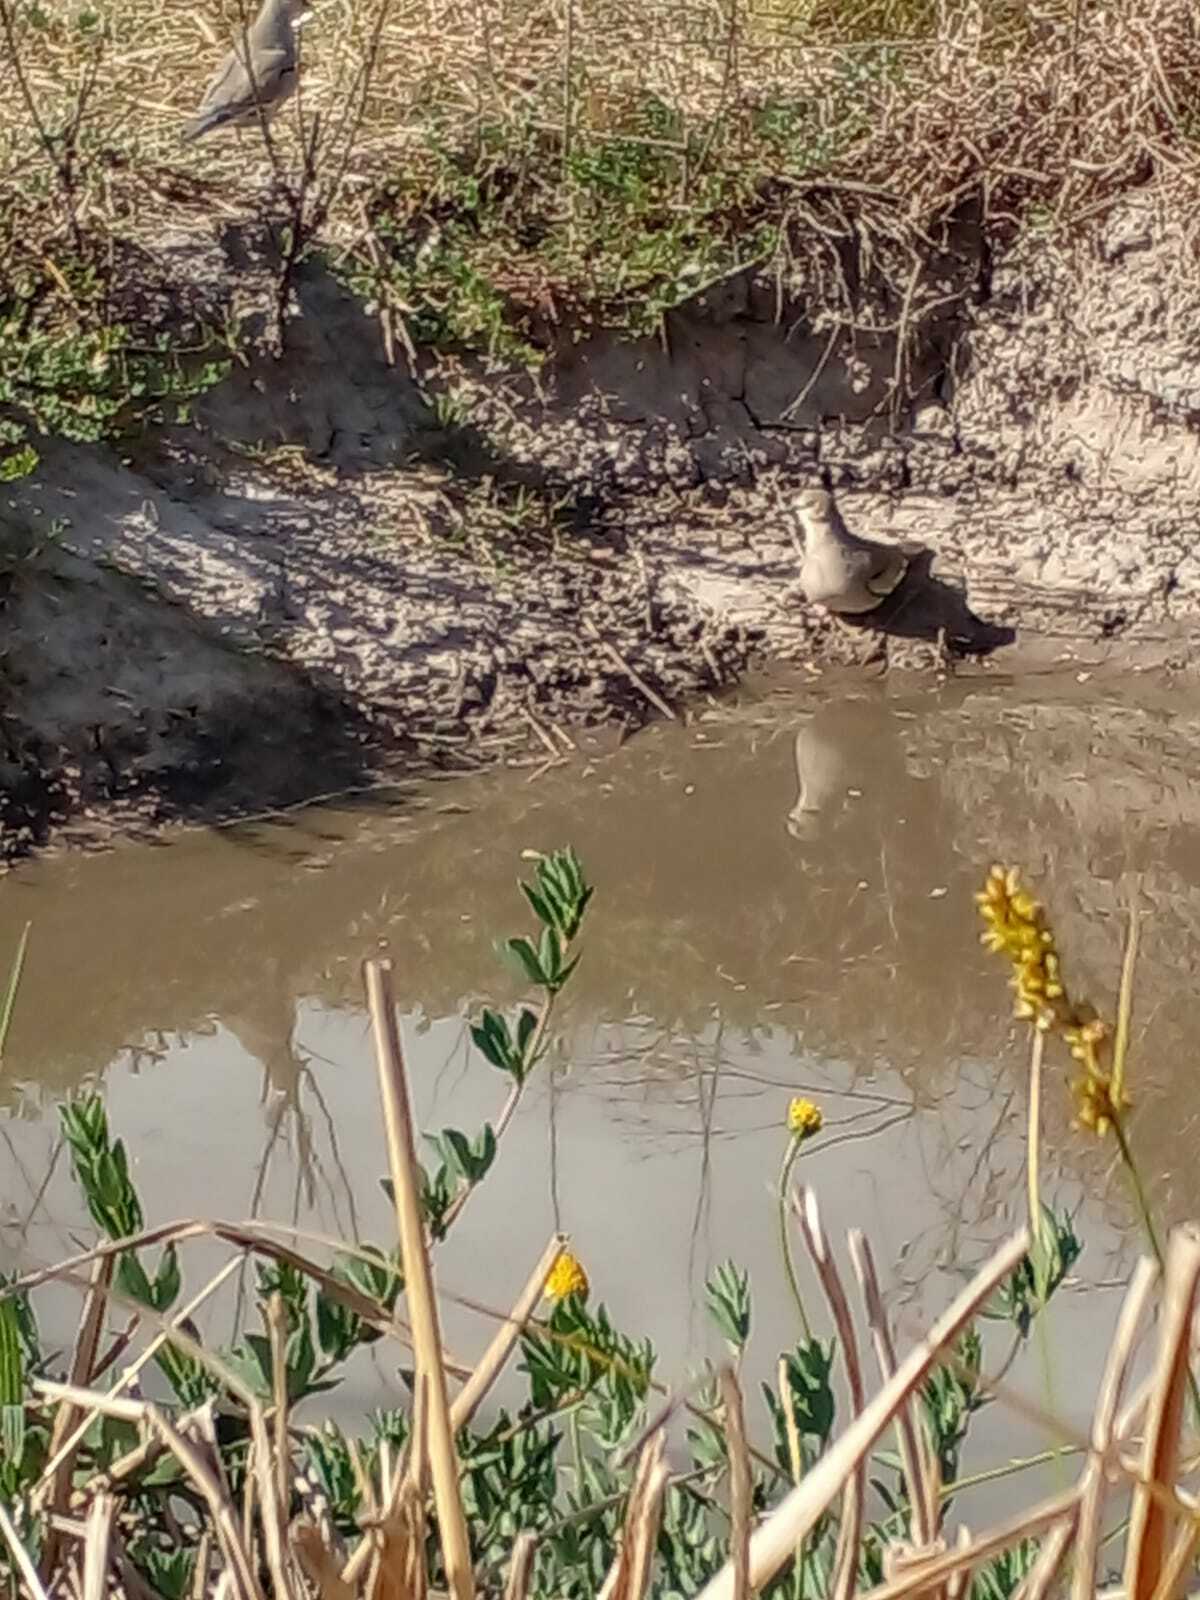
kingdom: Animalia
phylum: Chordata
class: Aves
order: Columbiformes
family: Columbidae
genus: Columbina
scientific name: Columbina picui
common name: Picui ground dove
